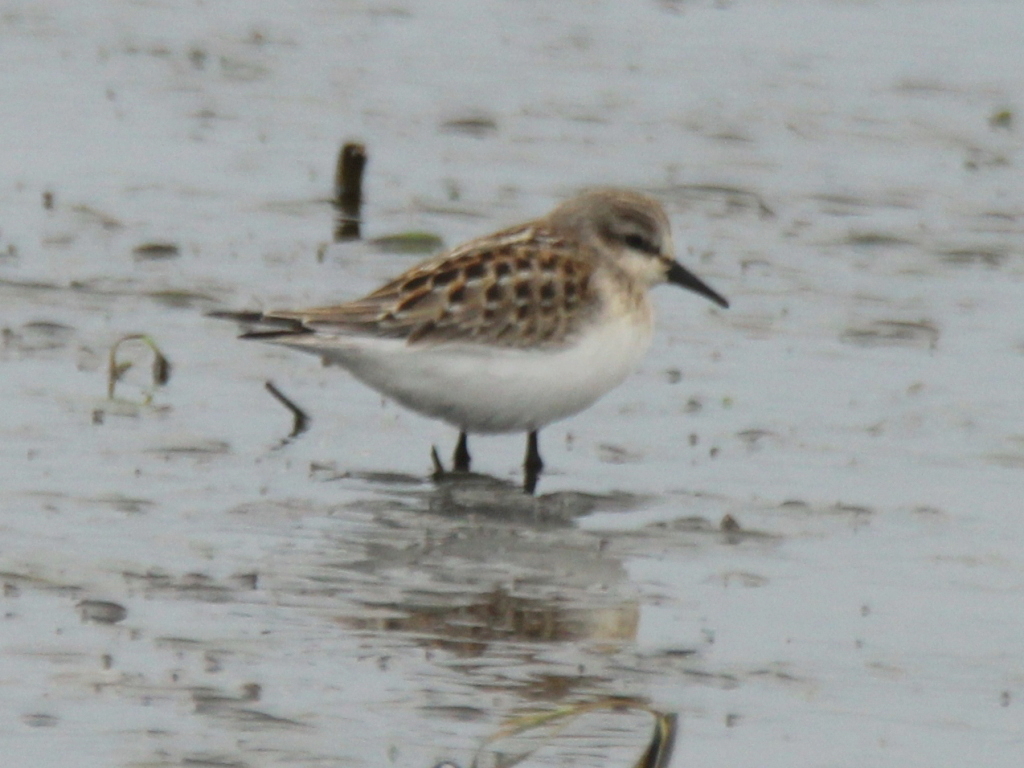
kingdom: Animalia
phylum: Chordata
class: Aves
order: Charadriiformes
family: Scolopacidae
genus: Calidris
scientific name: Calidris ruficollis
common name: Red-necked stint
